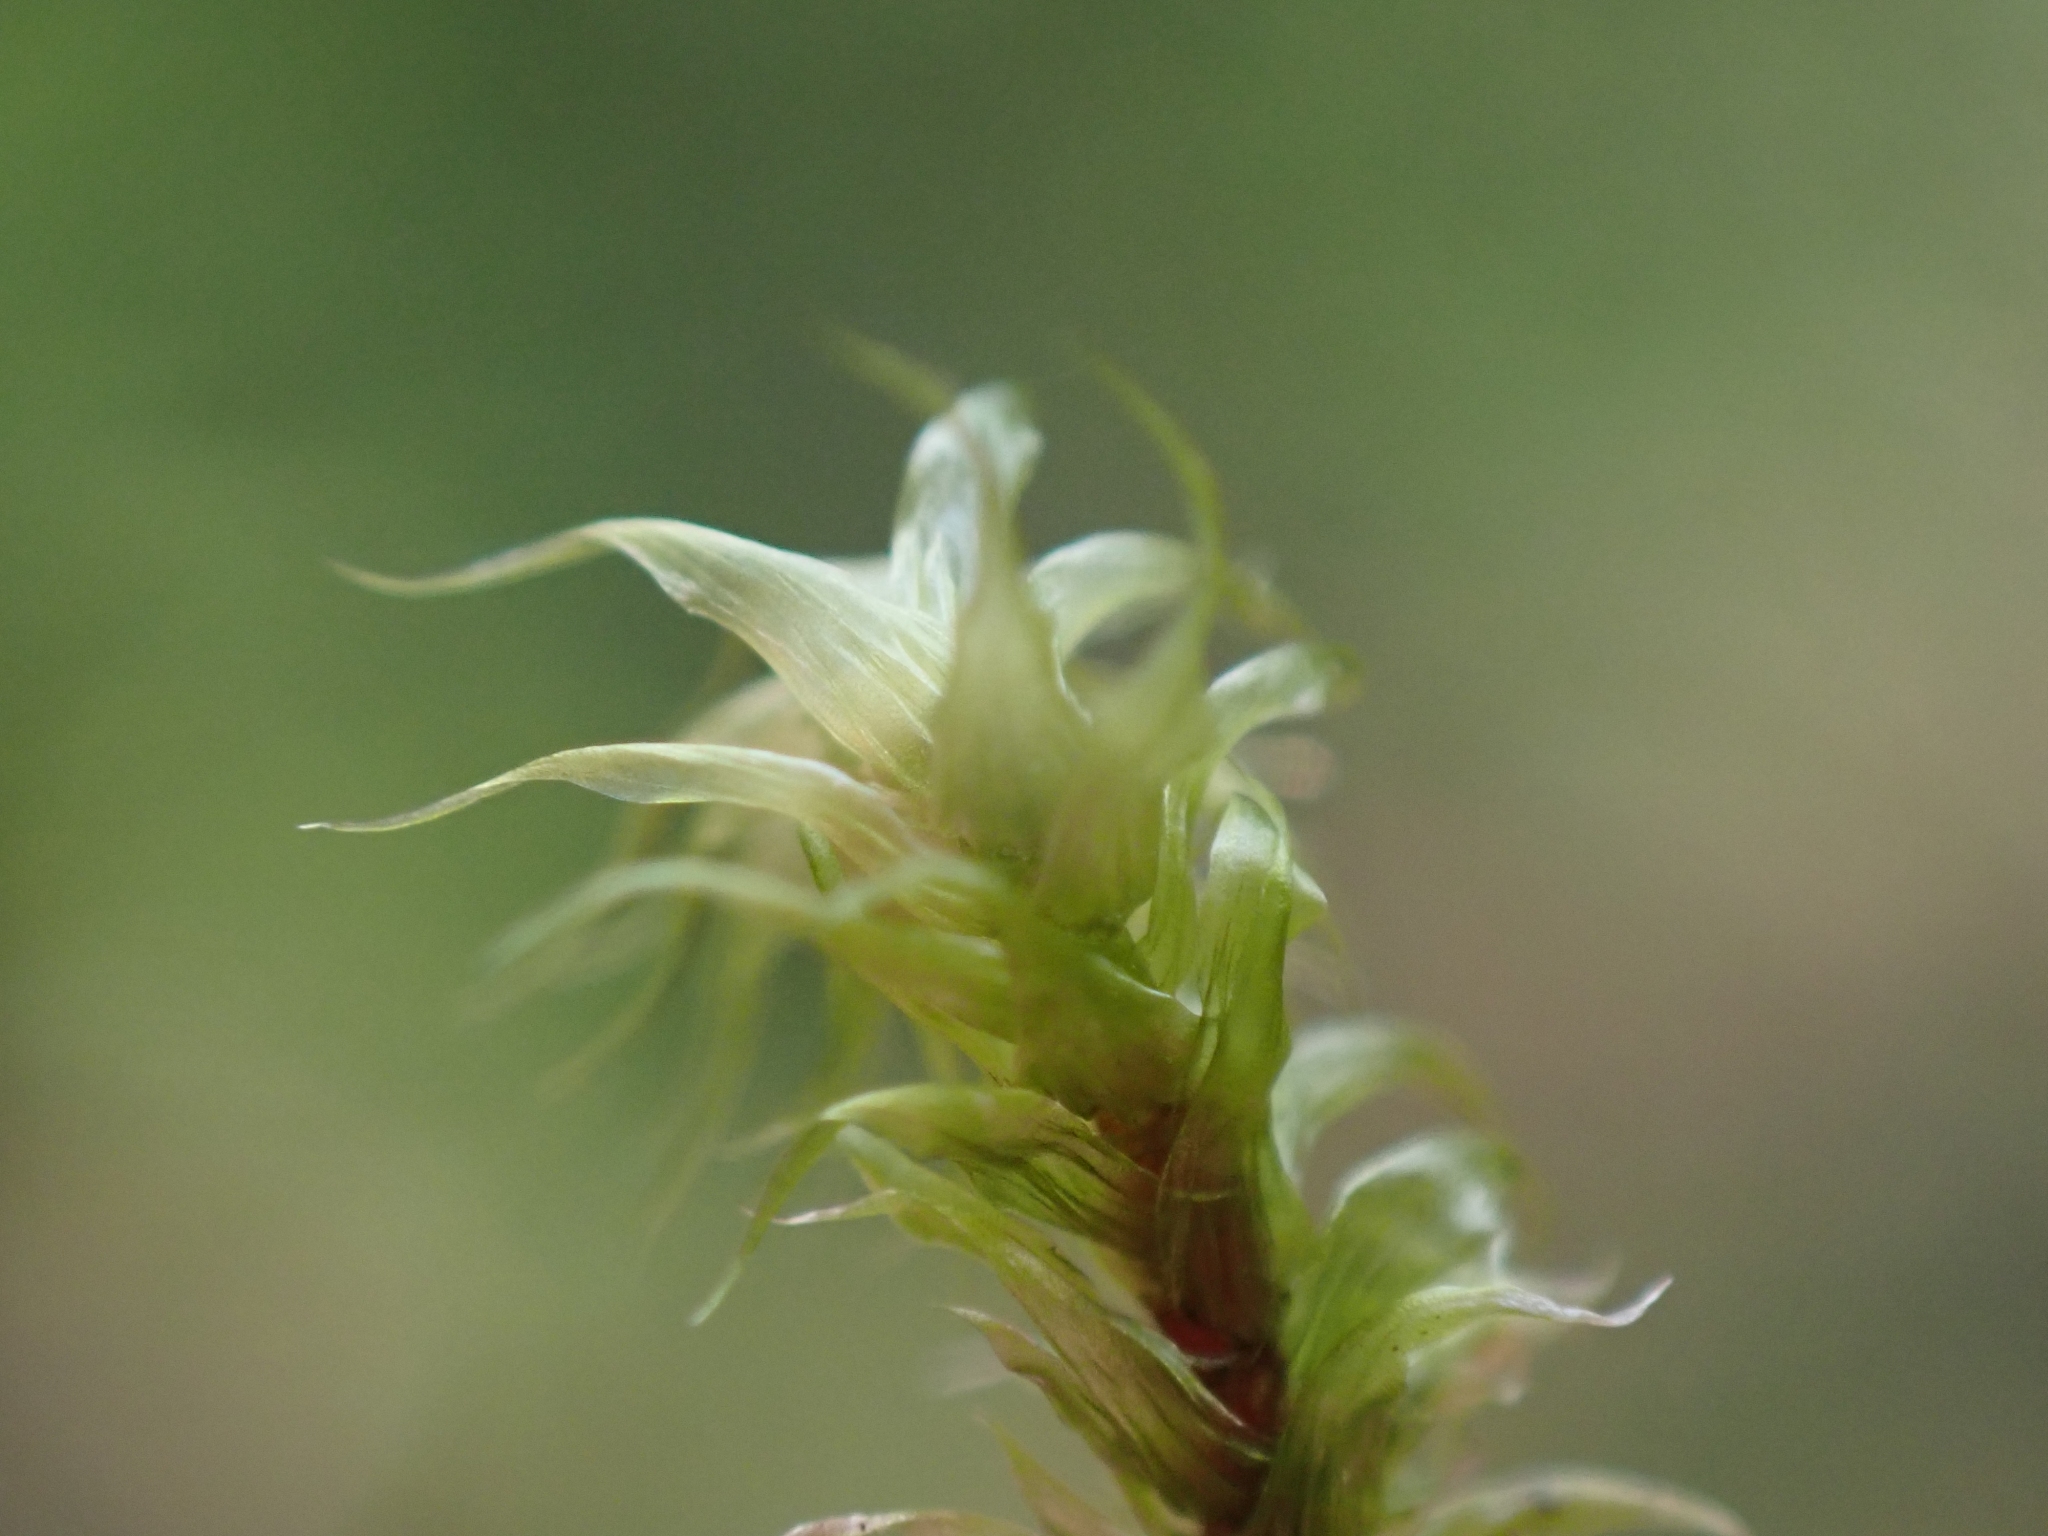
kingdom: Plantae
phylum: Bryophyta
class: Bryopsida
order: Hypnales
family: Hylocomiaceae
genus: Rhytidiadelphus
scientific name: Rhytidiadelphus loreus
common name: Lanky moss
